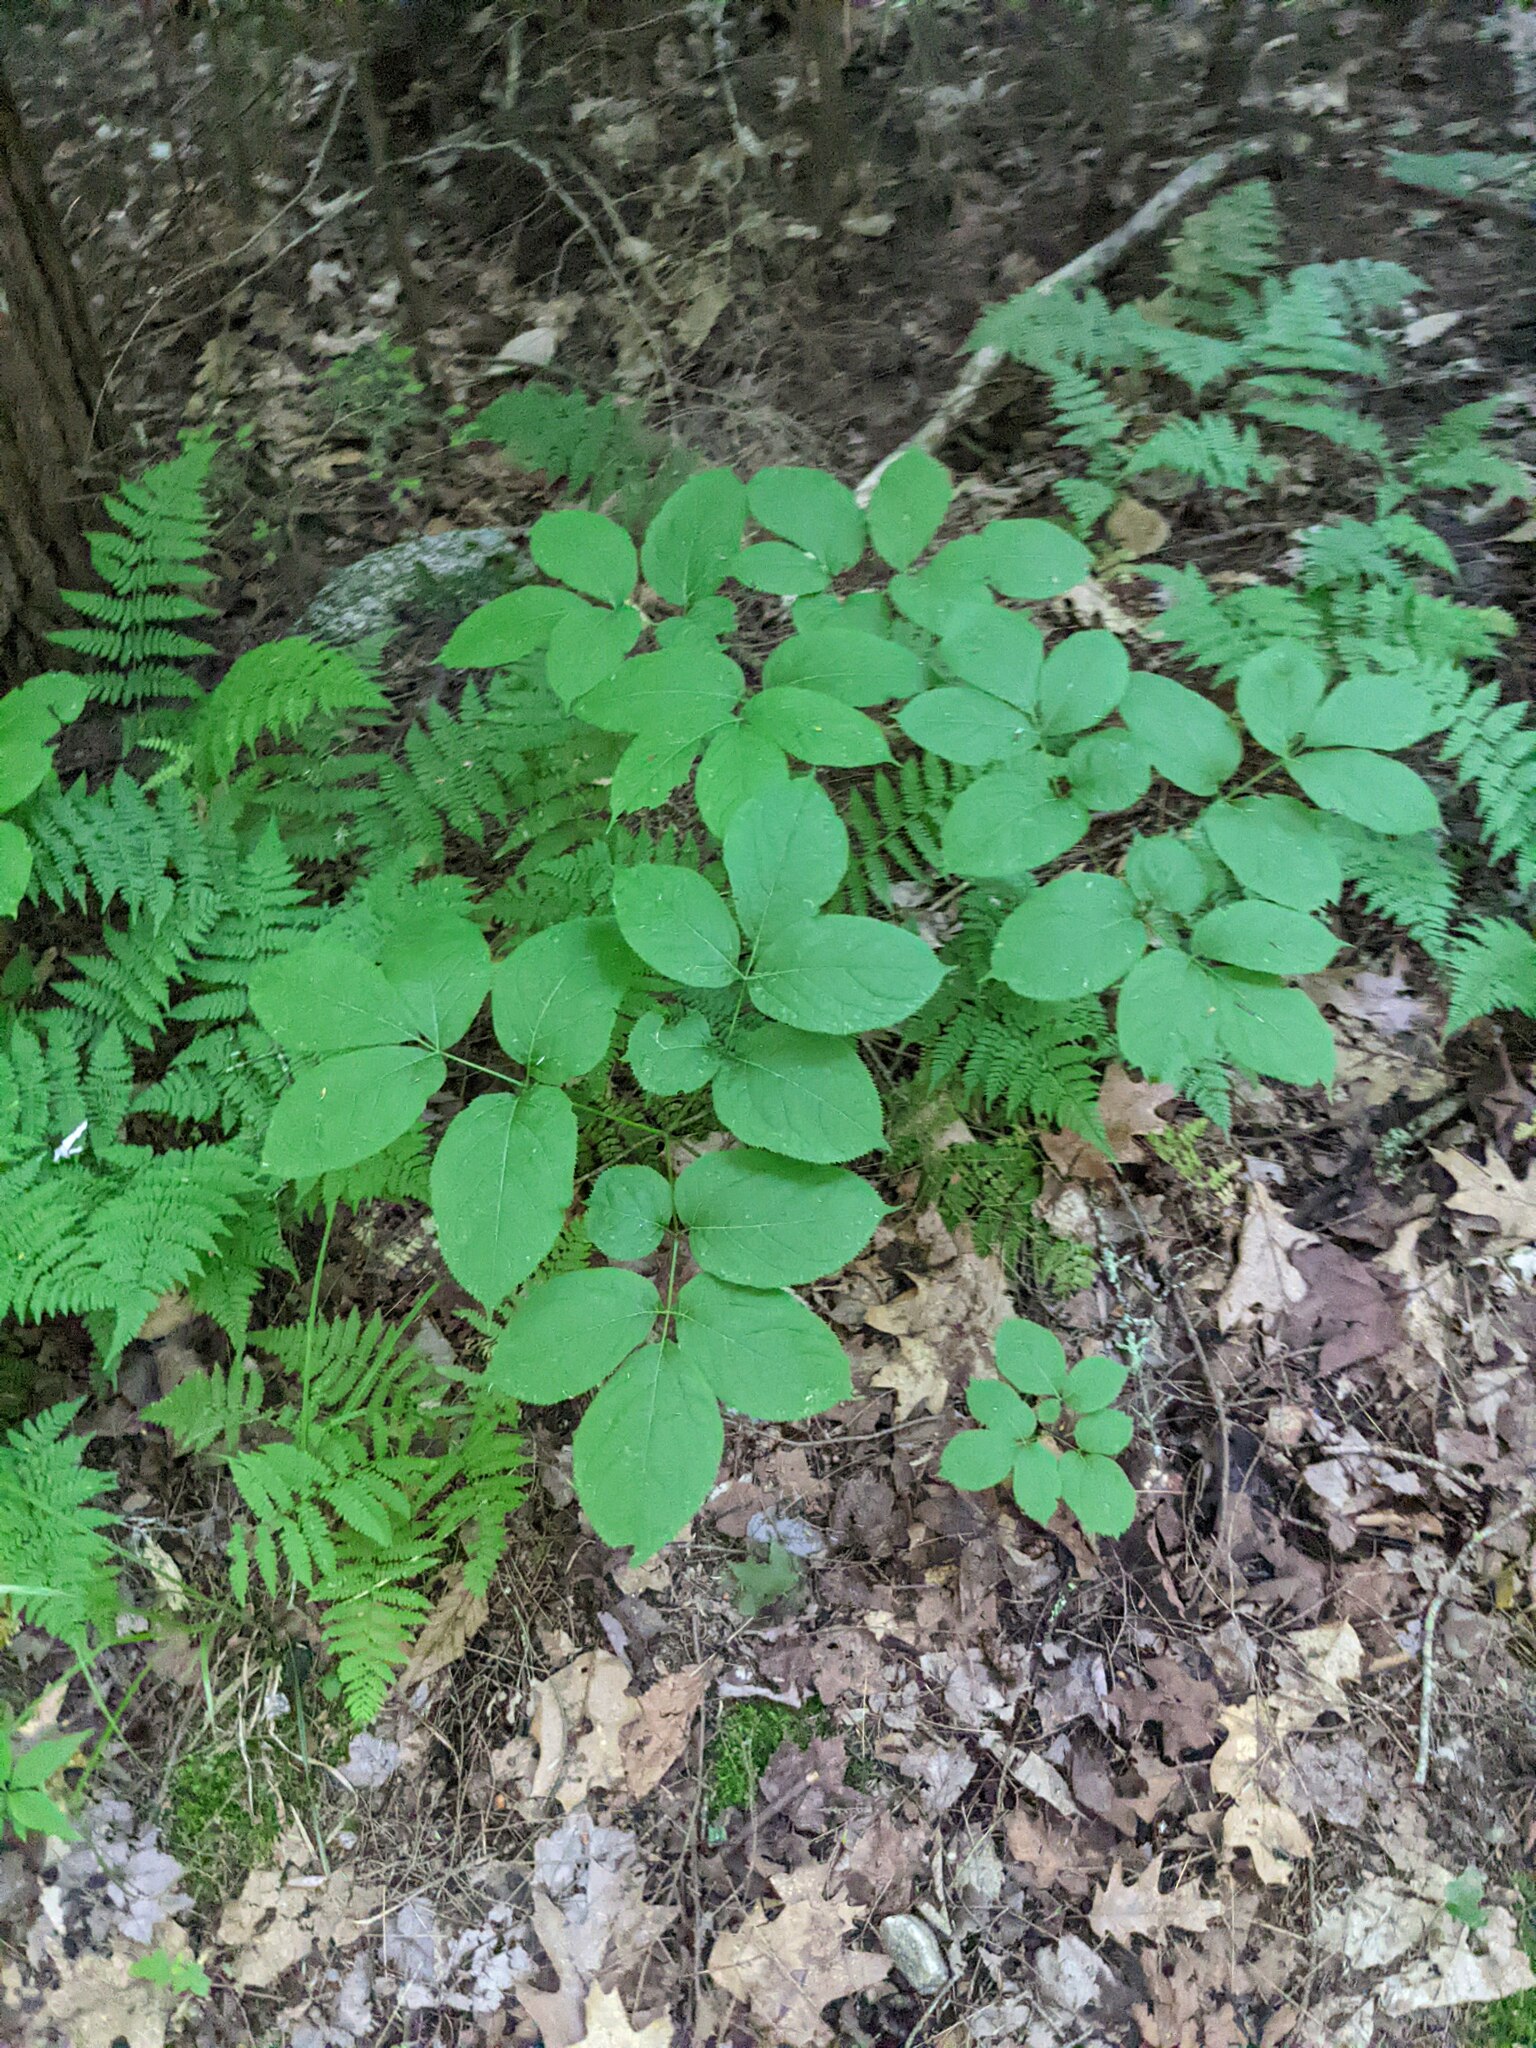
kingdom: Plantae
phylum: Tracheophyta
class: Magnoliopsida
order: Apiales
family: Araliaceae
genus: Aralia
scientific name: Aralia nudicaulis
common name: Wild sarsaparilla
